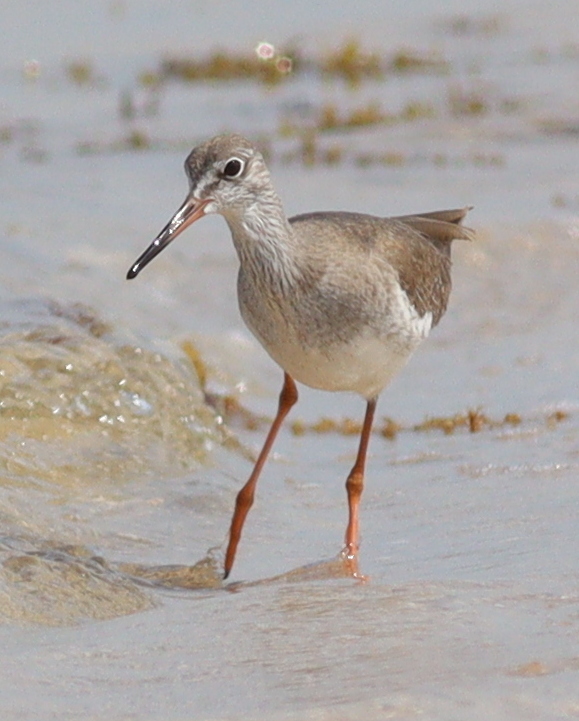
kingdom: Animalia
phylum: Chordata
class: Aves
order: Charadriiformes
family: Scolopacidae
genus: Tringa
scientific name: Tringa totanus
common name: Common redshank
